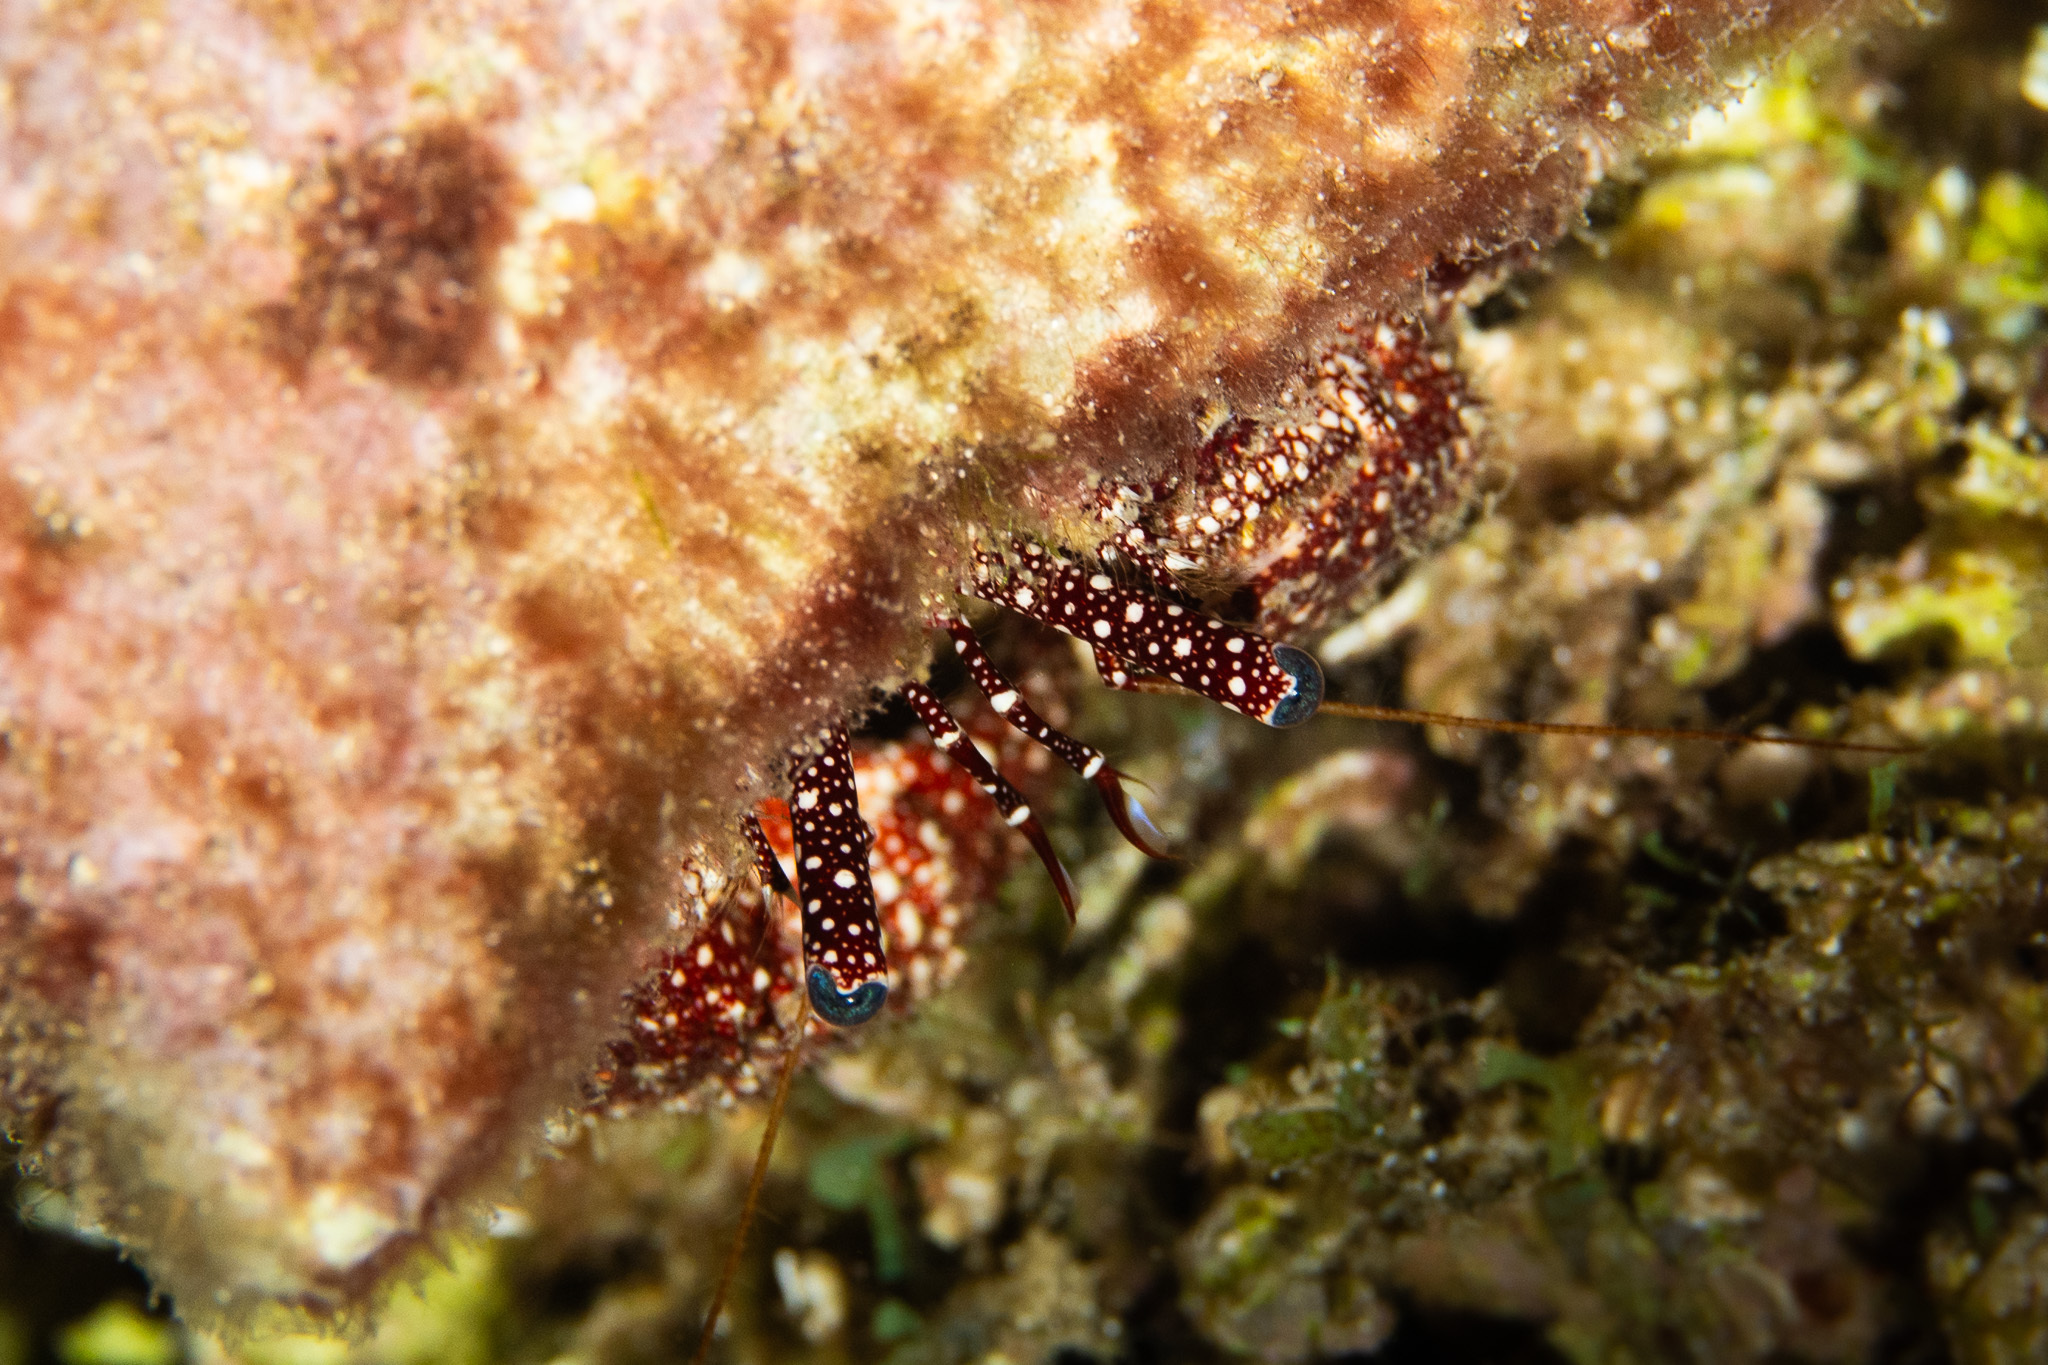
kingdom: Animalia
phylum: Arthropoda
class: Malacostraca
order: Decapoda
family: Diogenidae
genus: Paguristes
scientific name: Paguristes puncticeps
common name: White speckled hermit
